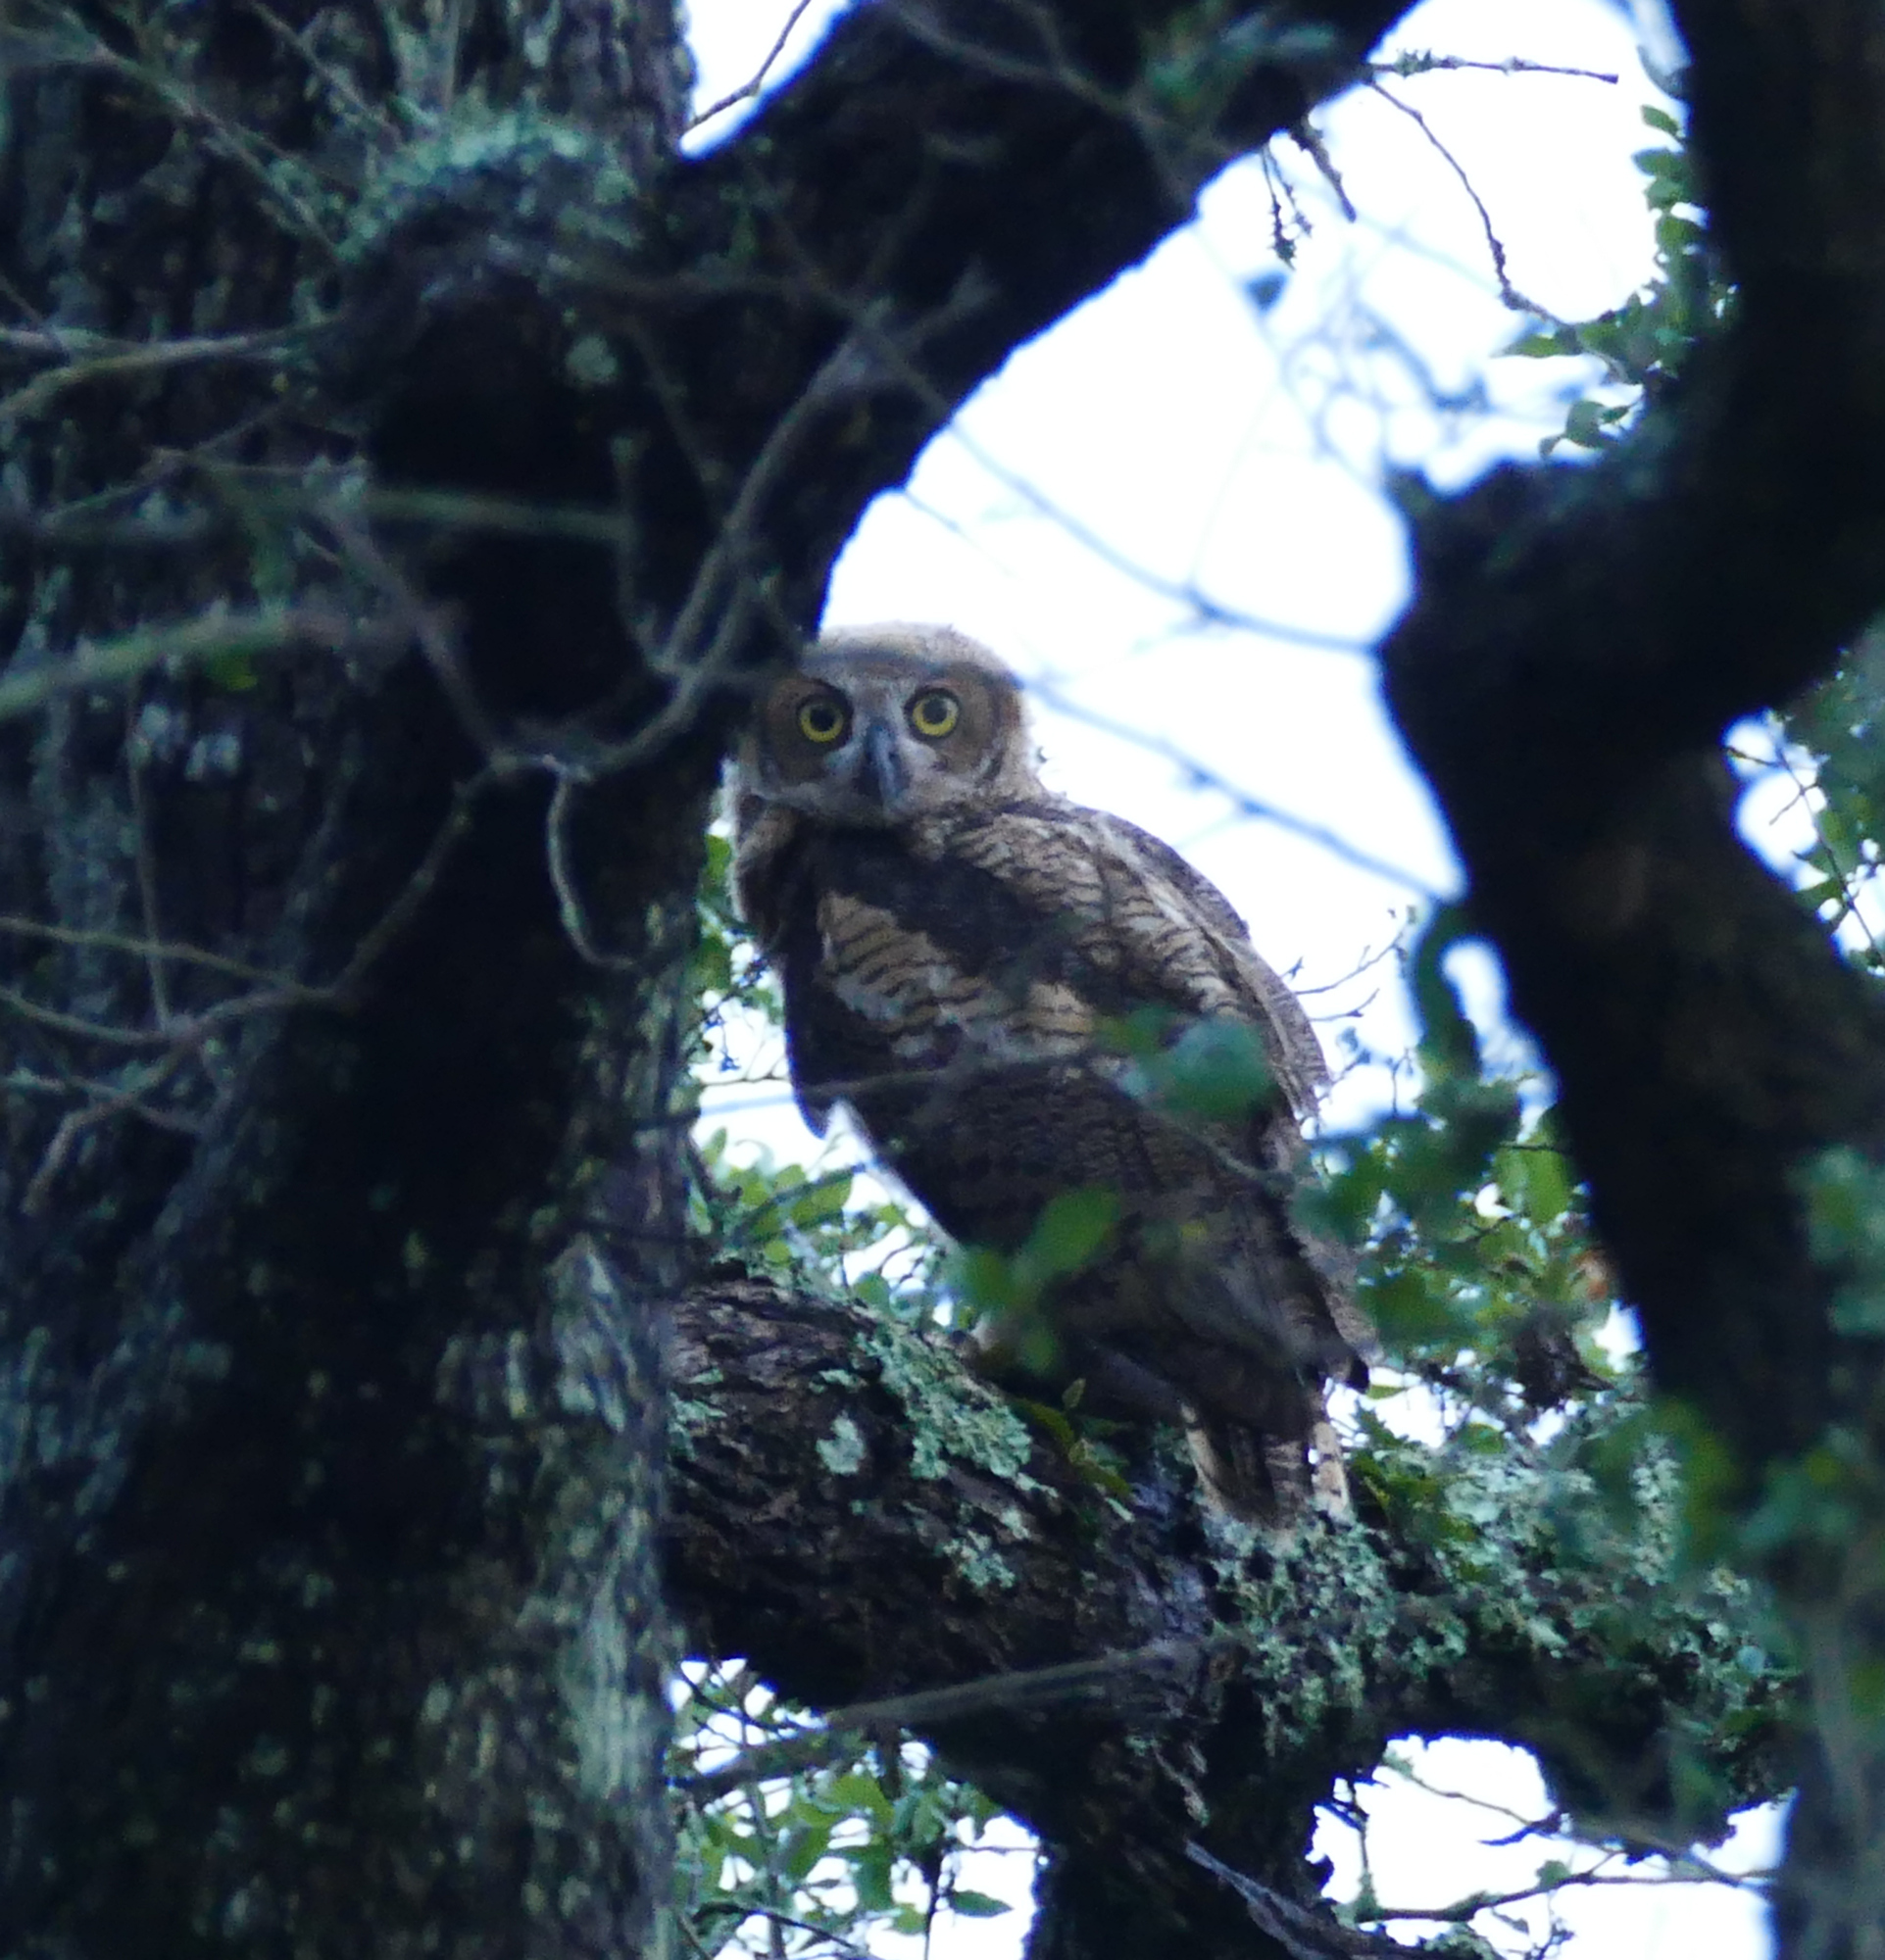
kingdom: Animalia
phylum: Chordata
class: Aves
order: Strigiformes
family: Strigidae
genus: Bubo
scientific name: Bubo virginianus
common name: Great horned owl
